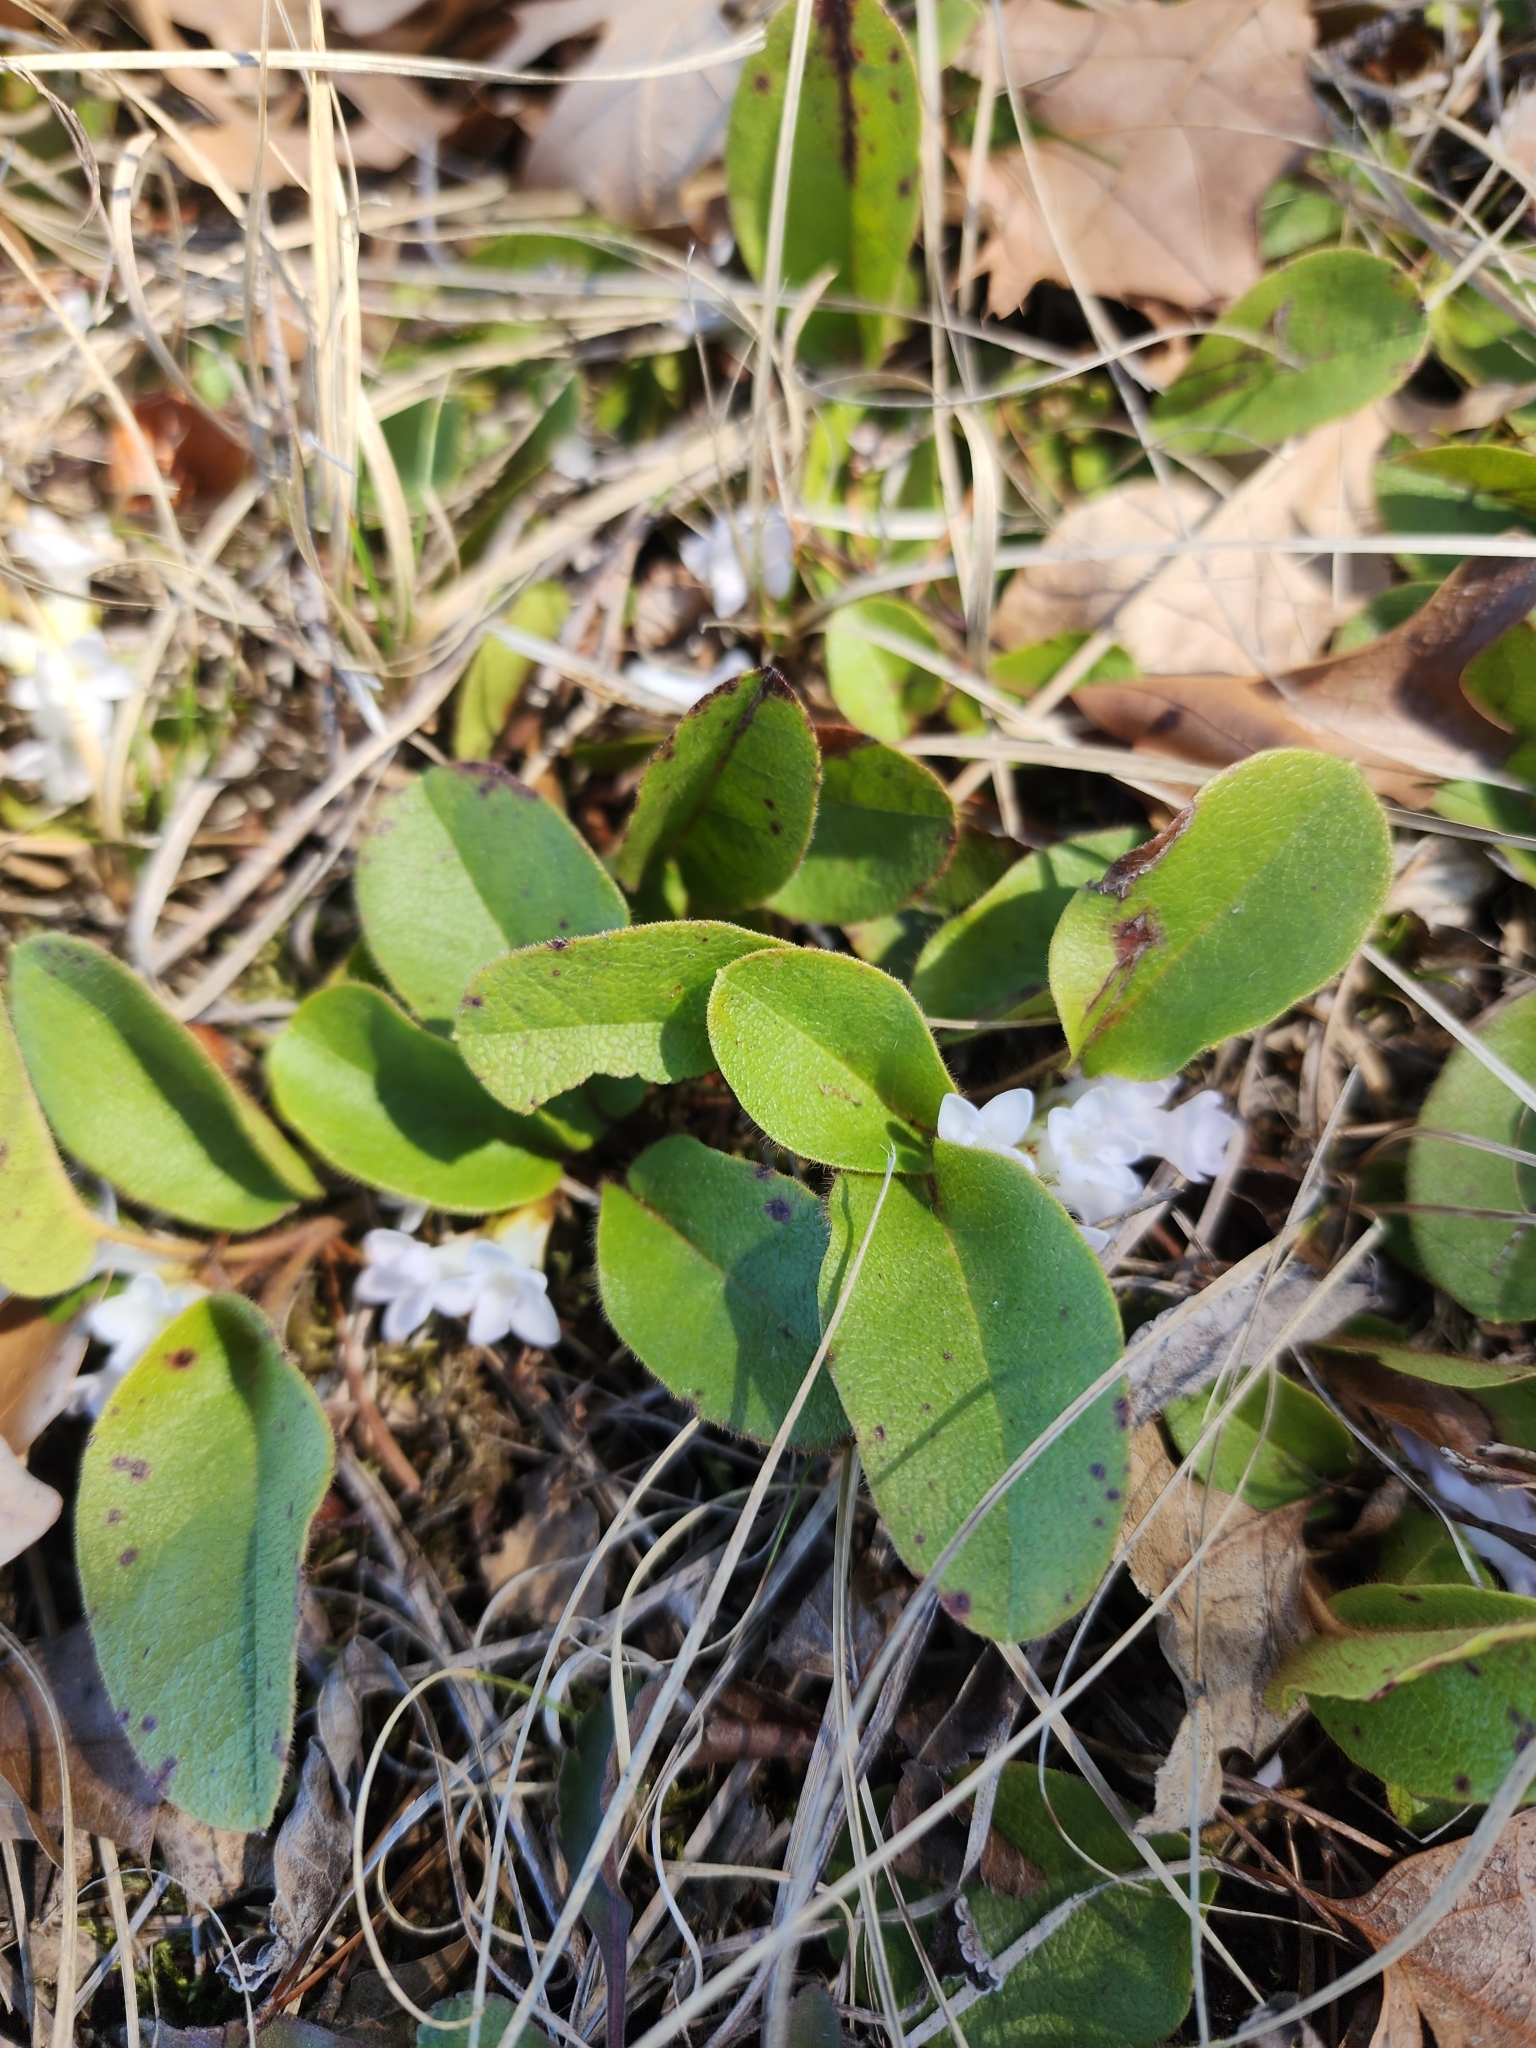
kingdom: Plantae
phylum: Tracheophyta
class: Magnoliopsida
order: Ericales
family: Ericaceae
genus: Epigaea
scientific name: Epigaea repens
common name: Gravelroot
